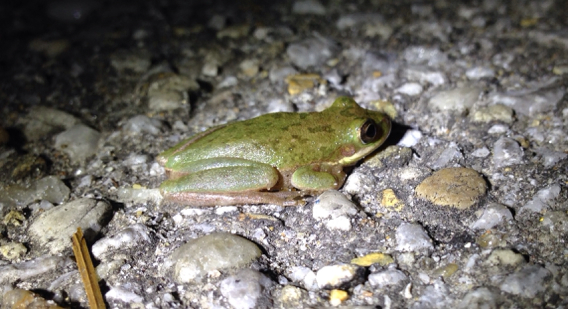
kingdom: Animalia
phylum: Chordata
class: Amphibia
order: Anura
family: Hylidae
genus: Dryophytes
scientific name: Dryophytes squirellus
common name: Squirrel treefrog
